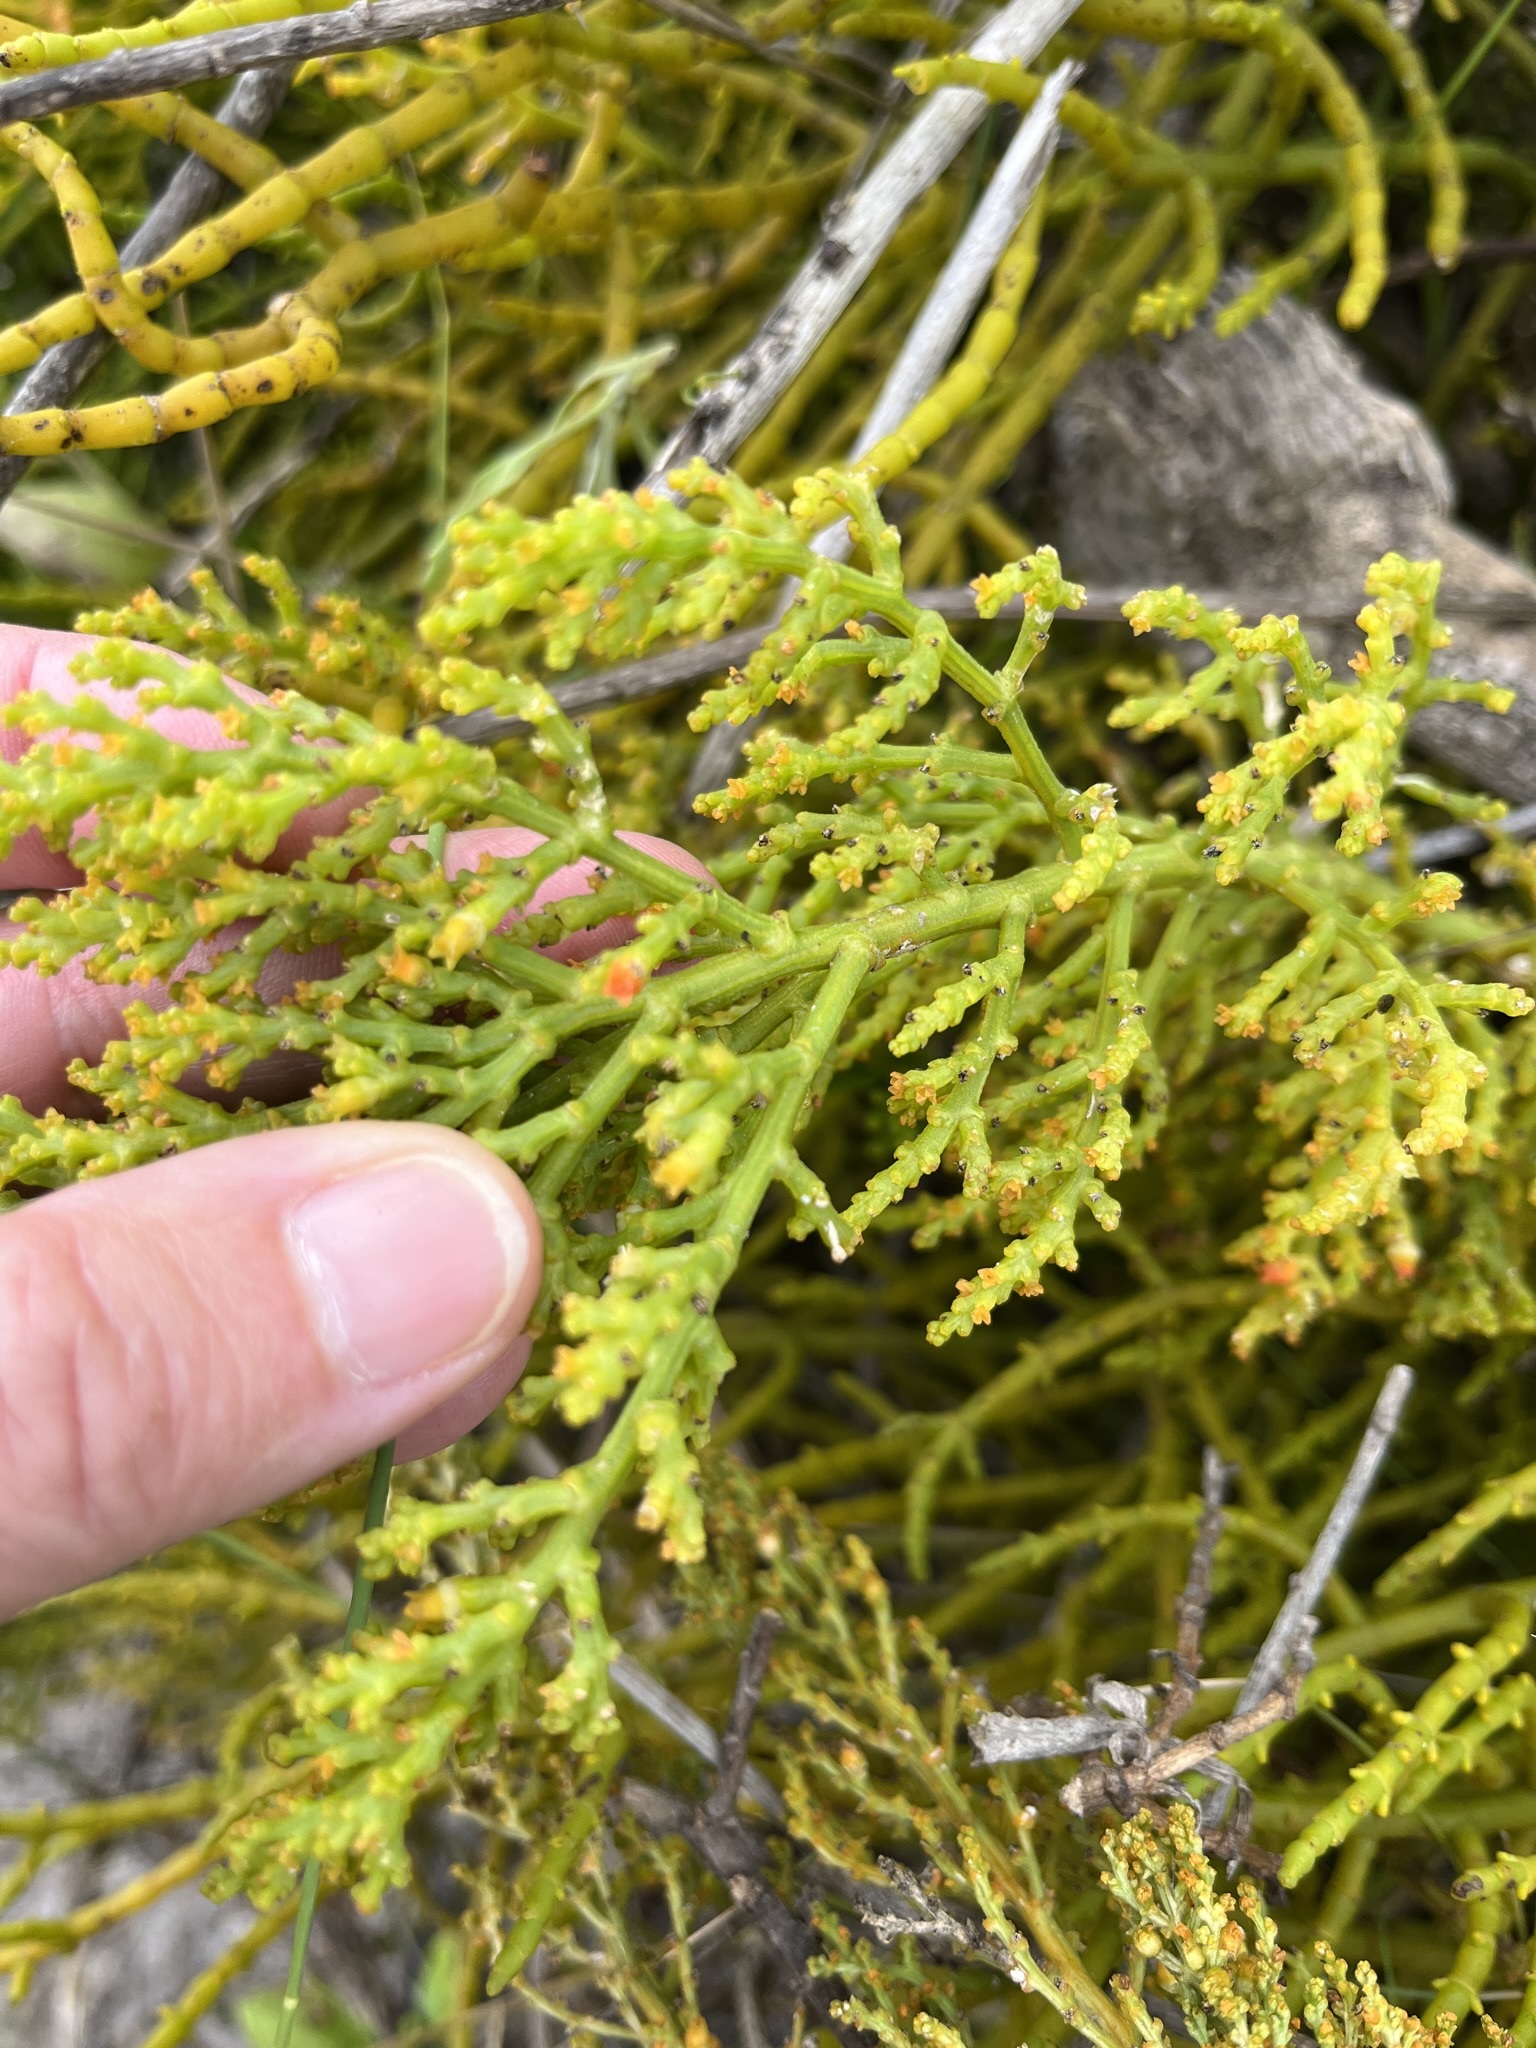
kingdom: Plantae
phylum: Tracheophyta
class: Magnoliopsida
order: Santalales
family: Thesiaceae
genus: Thesium
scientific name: Thesium fragile
